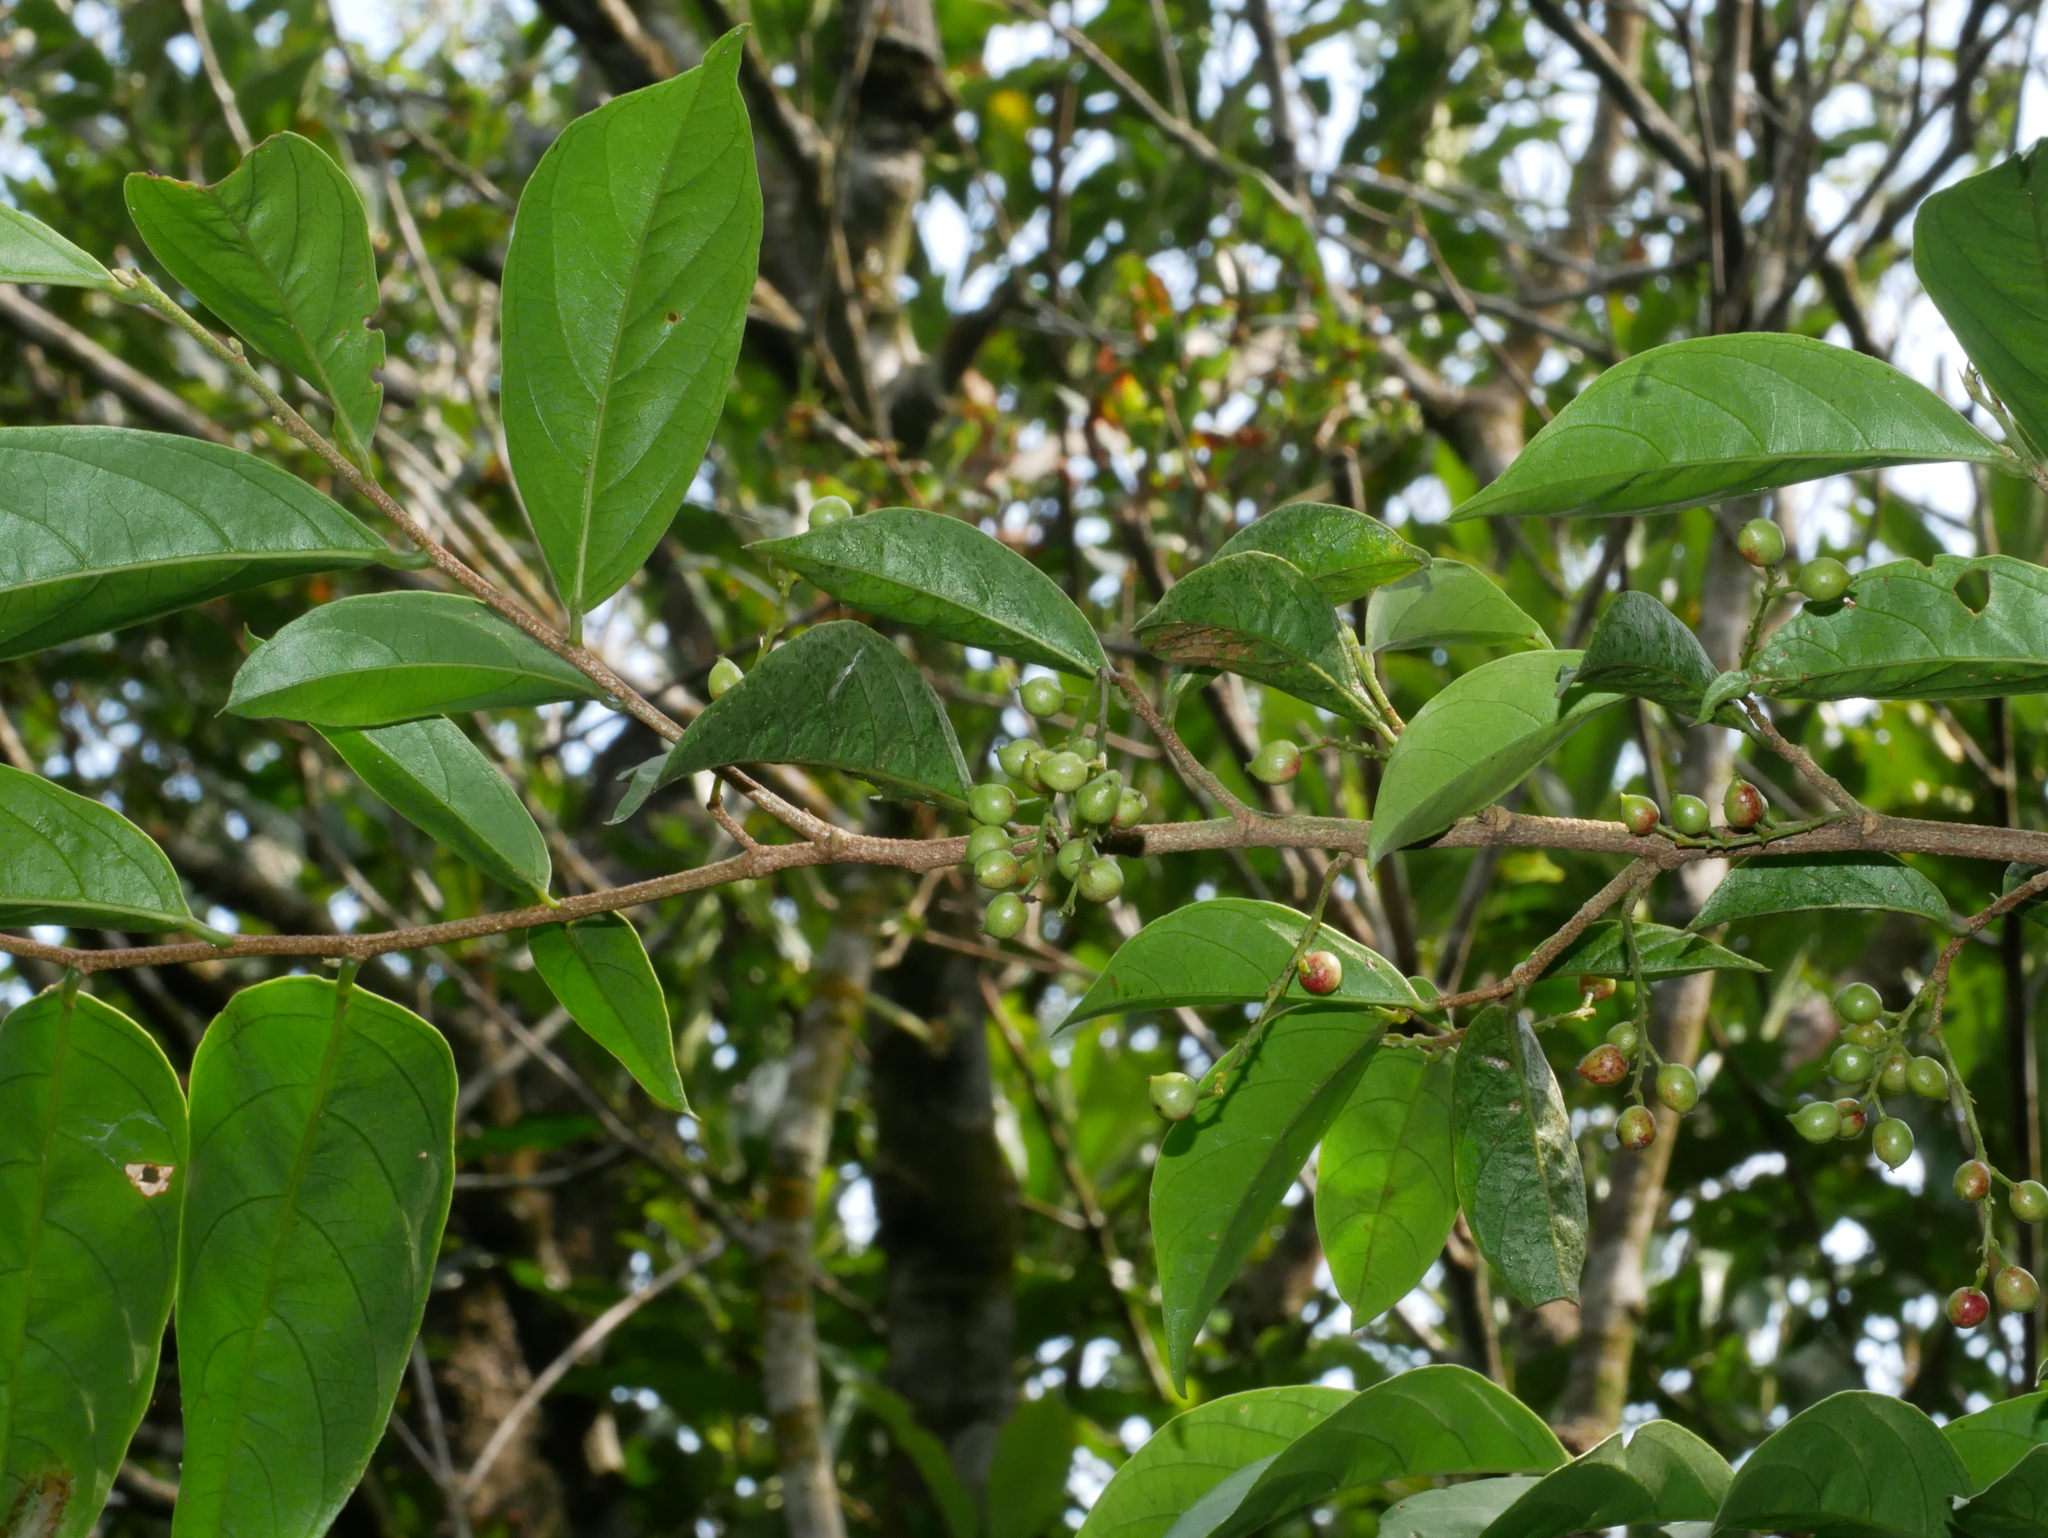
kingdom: Plantae
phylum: Tracheophyta
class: Magnoliopsida
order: Malpighiales
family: Phyllanthaceae
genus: Antidesma
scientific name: Antidesma japonicum
